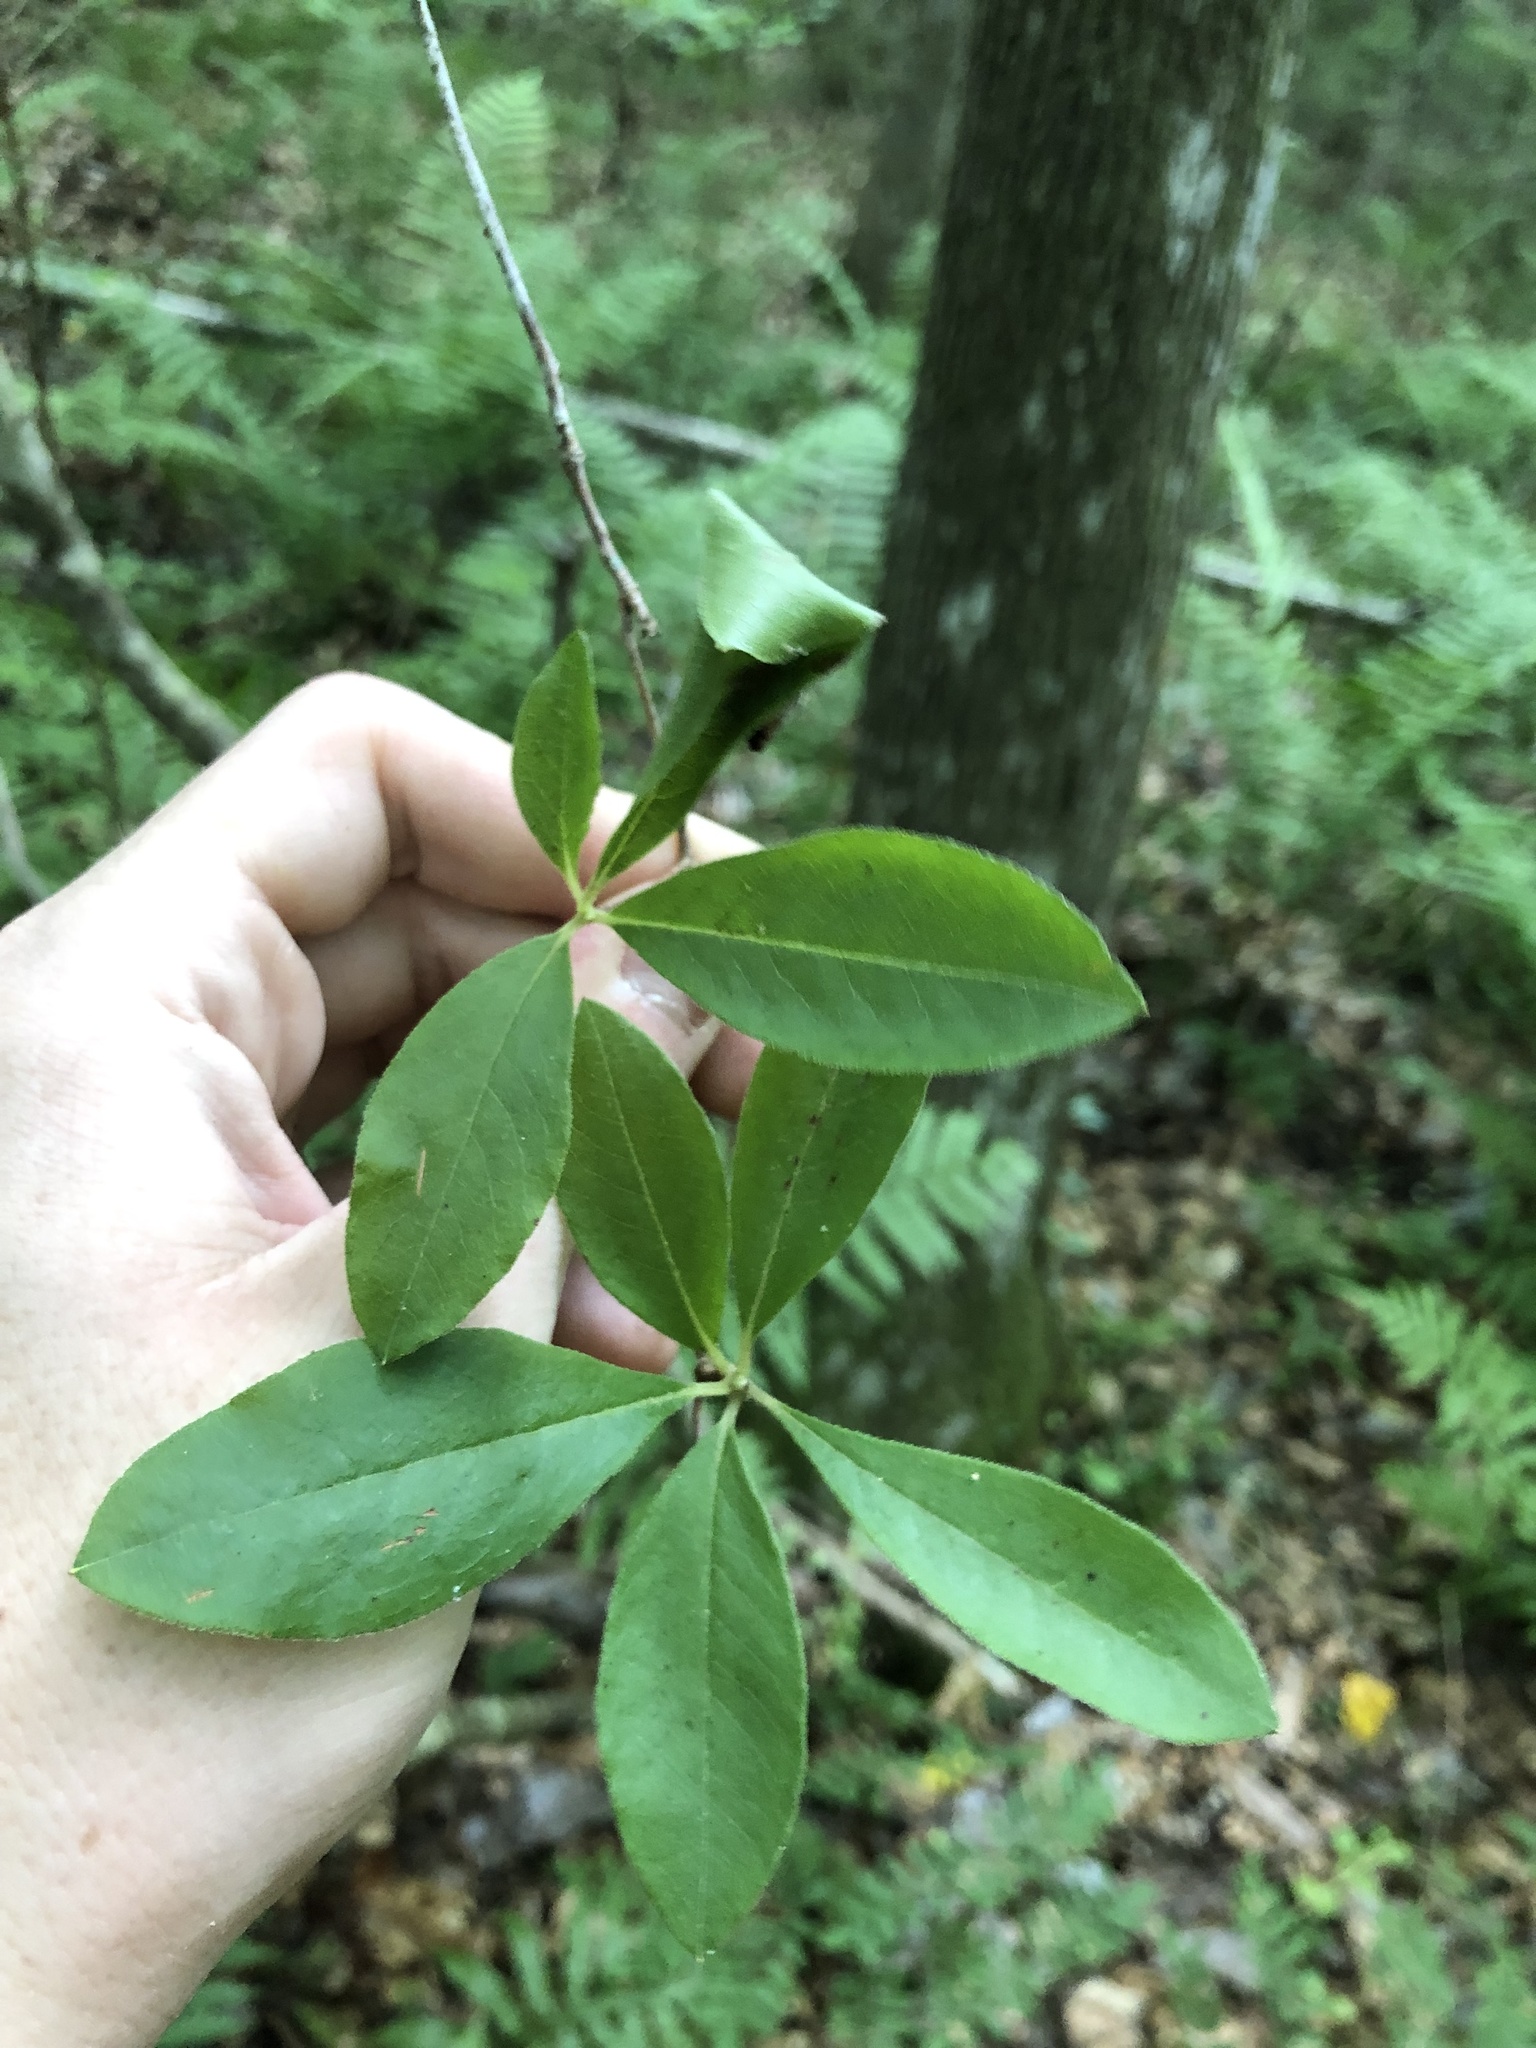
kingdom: Plantae
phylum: Tracheophyta
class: Magnoliopsida
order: Ericales
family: Ericaceae
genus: Rhododendron
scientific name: Rhododendron serrulatum
